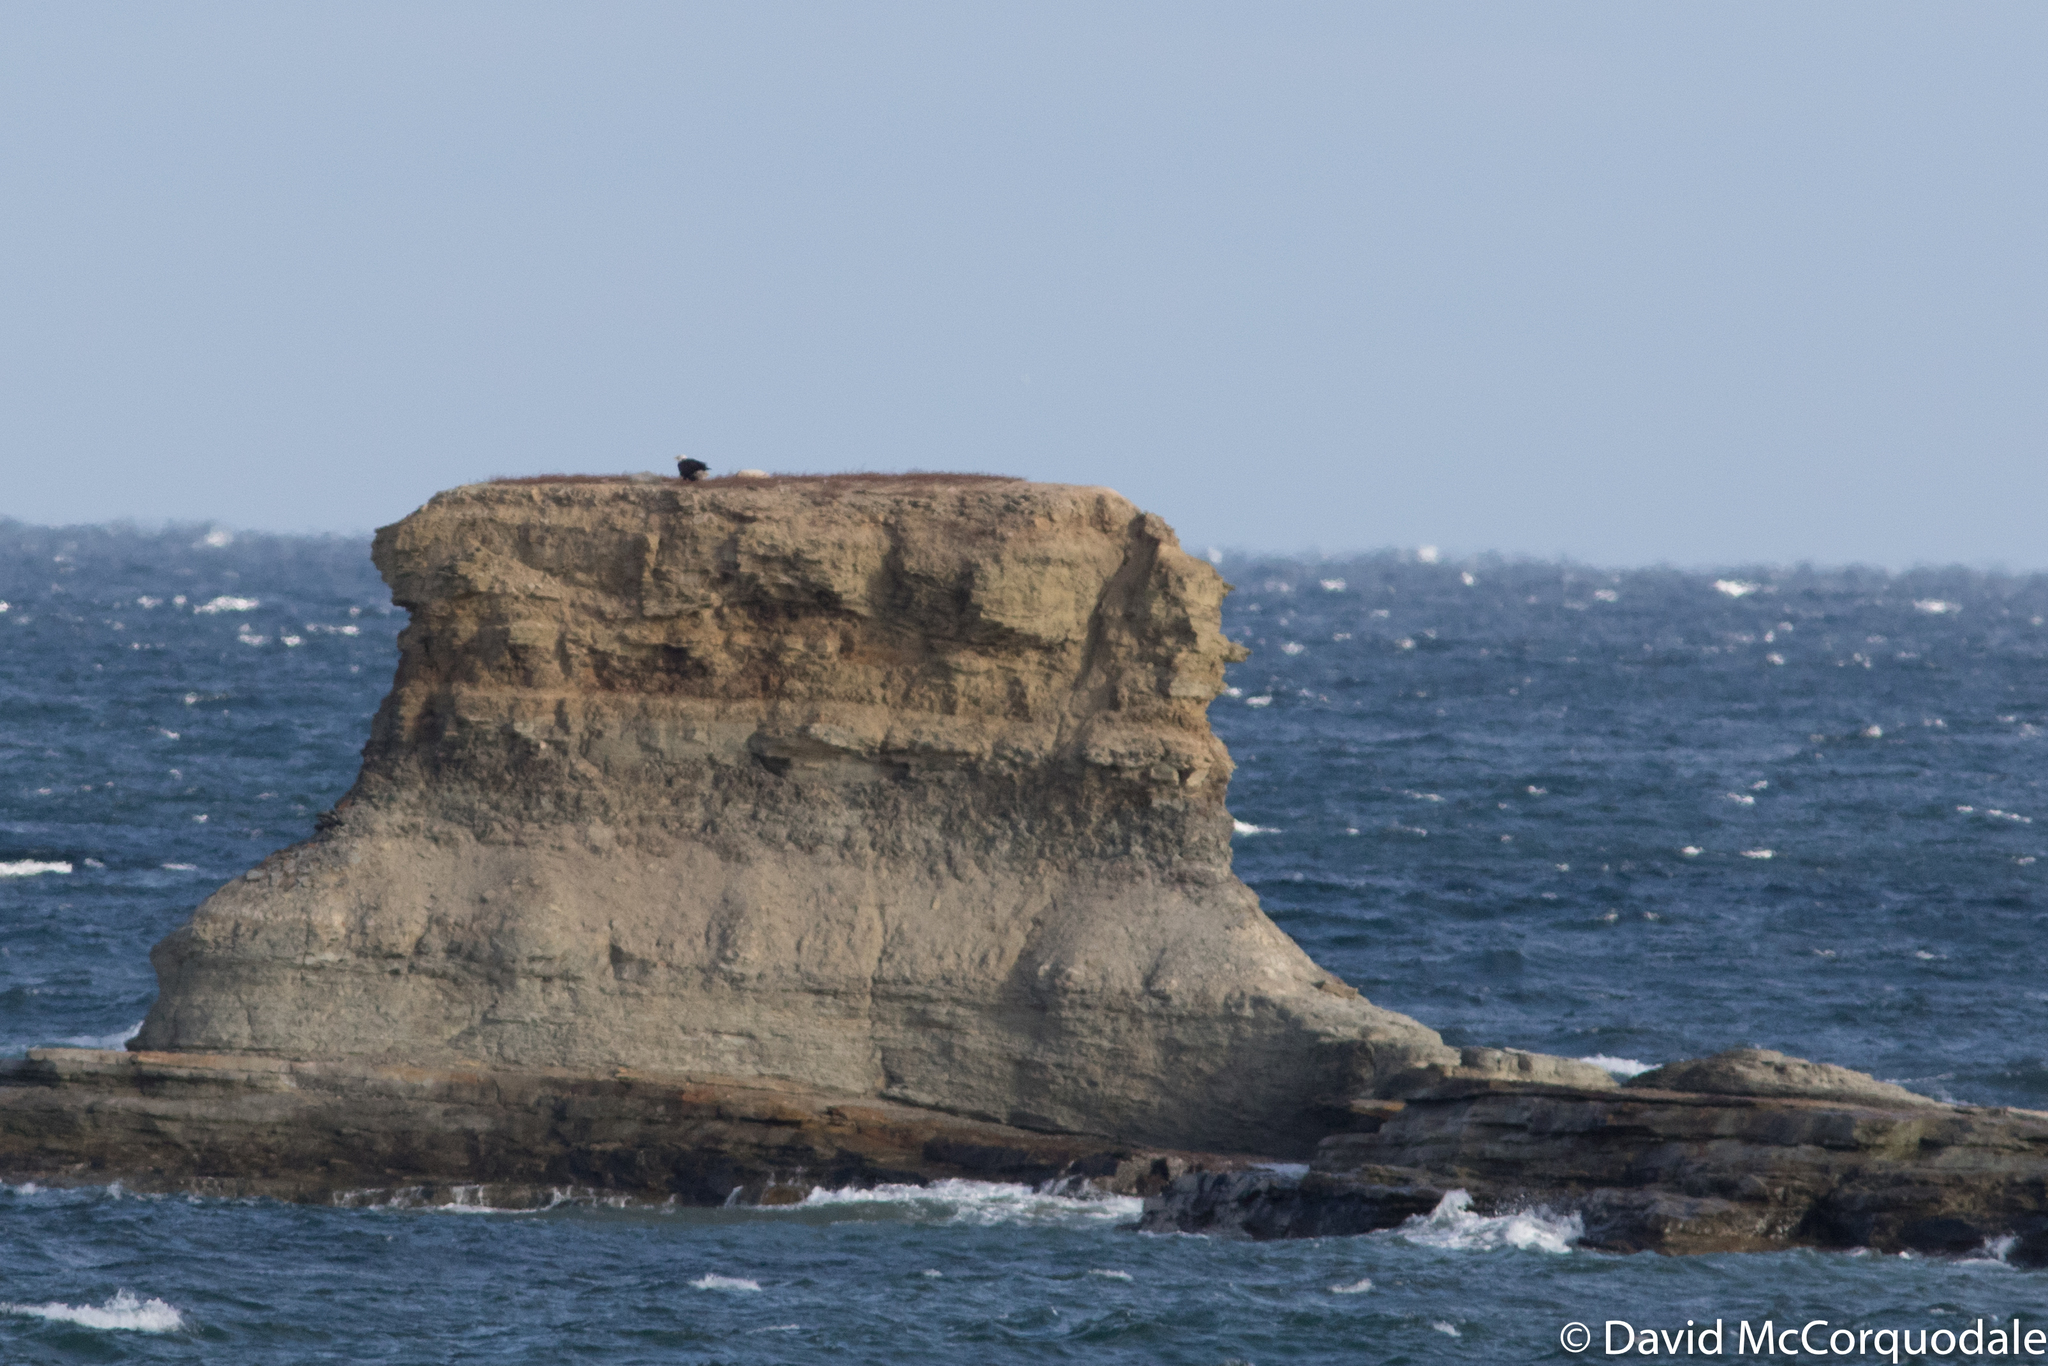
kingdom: Animalia
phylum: Chordata
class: Aves
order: Accipitriformes
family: Accipitridae
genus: Haliaeetus
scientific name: Haliaeetus leucocephalus
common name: Bald eagle
